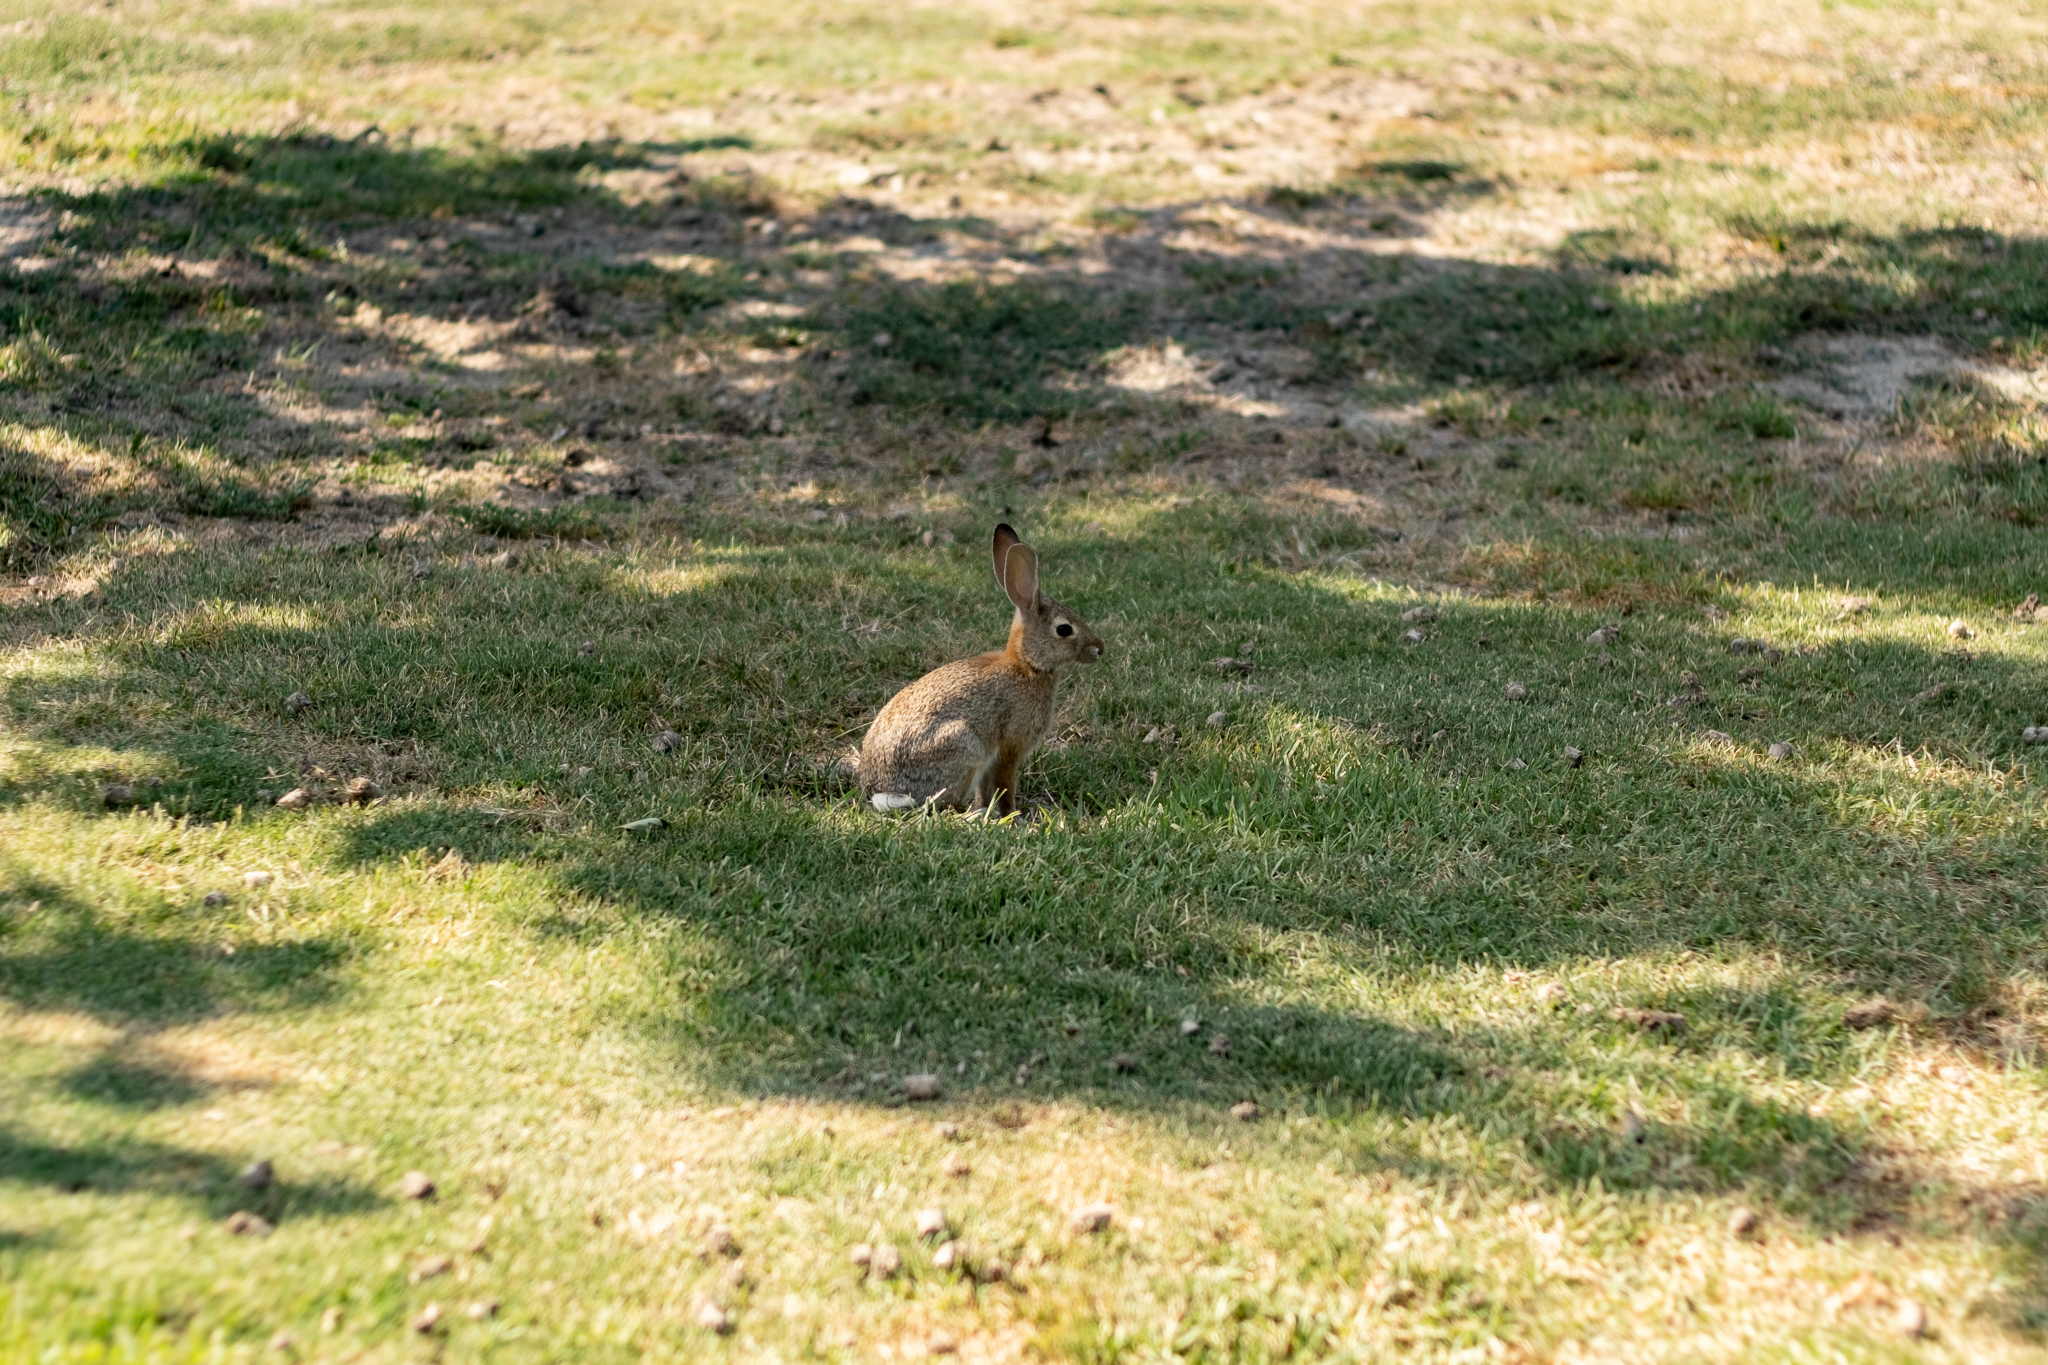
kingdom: Animalia
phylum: Chordata
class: Mammalia
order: Lagomorpha
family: Leporidae
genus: Sylvilagus
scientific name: Sylvilagus audubonii
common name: Desert cottontail
